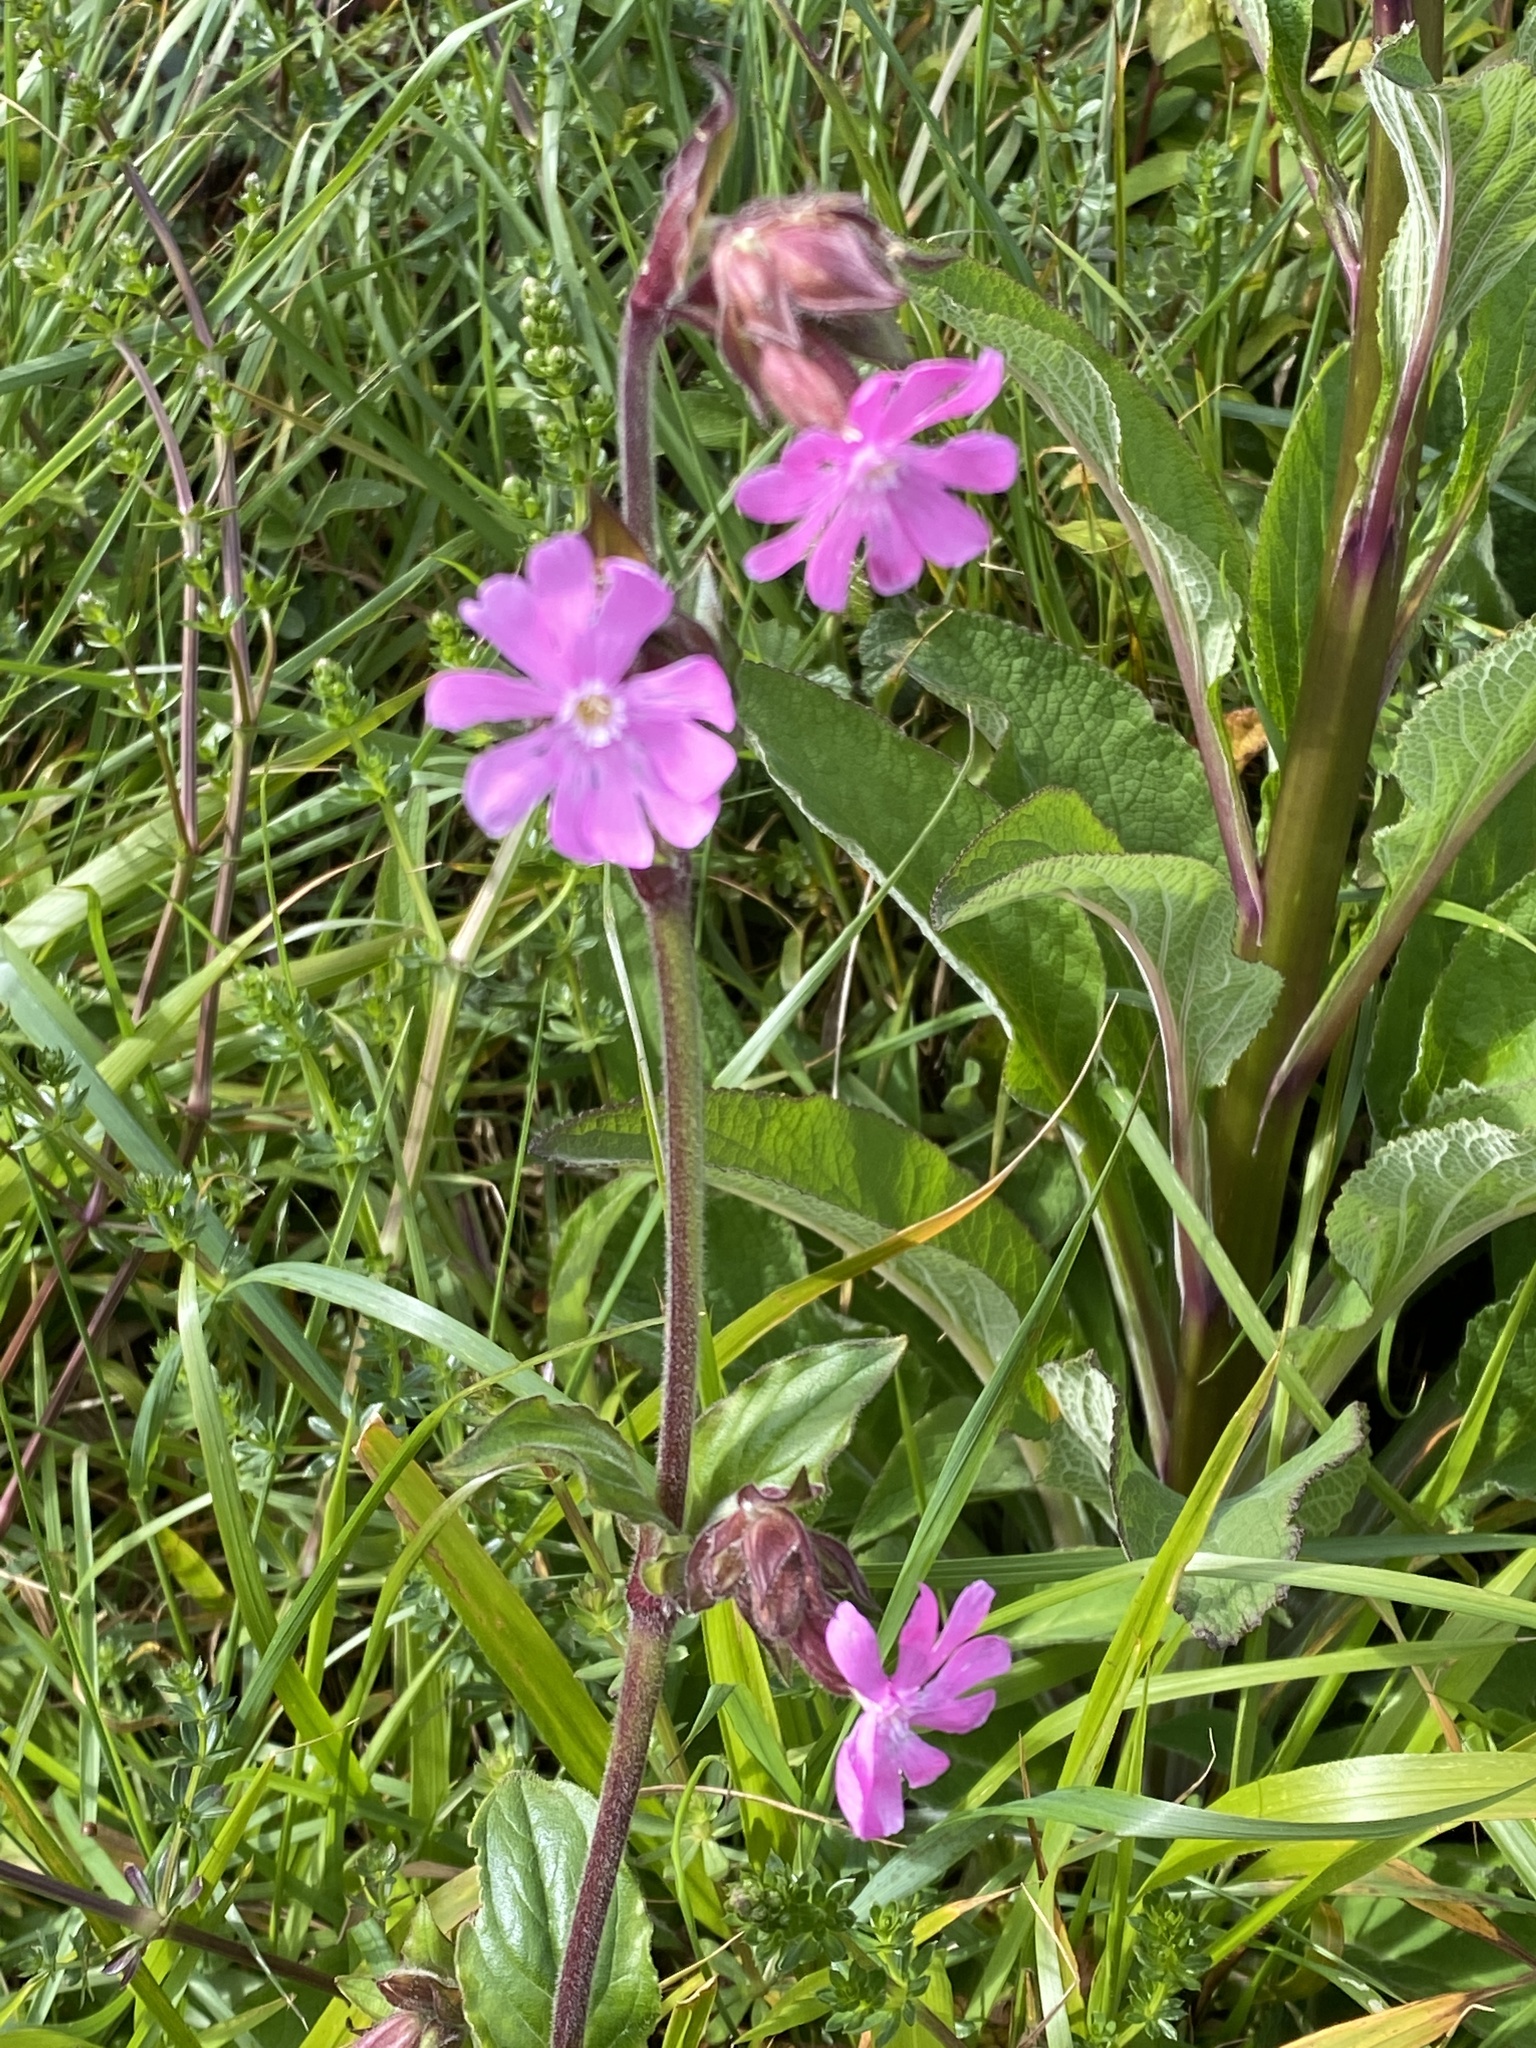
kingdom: Plantae
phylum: Tracheophyta
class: Magnoliopsida
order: Caryophyllales
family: Caryophyllaceae
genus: Silene
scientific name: Silene dioica
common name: Red campion
